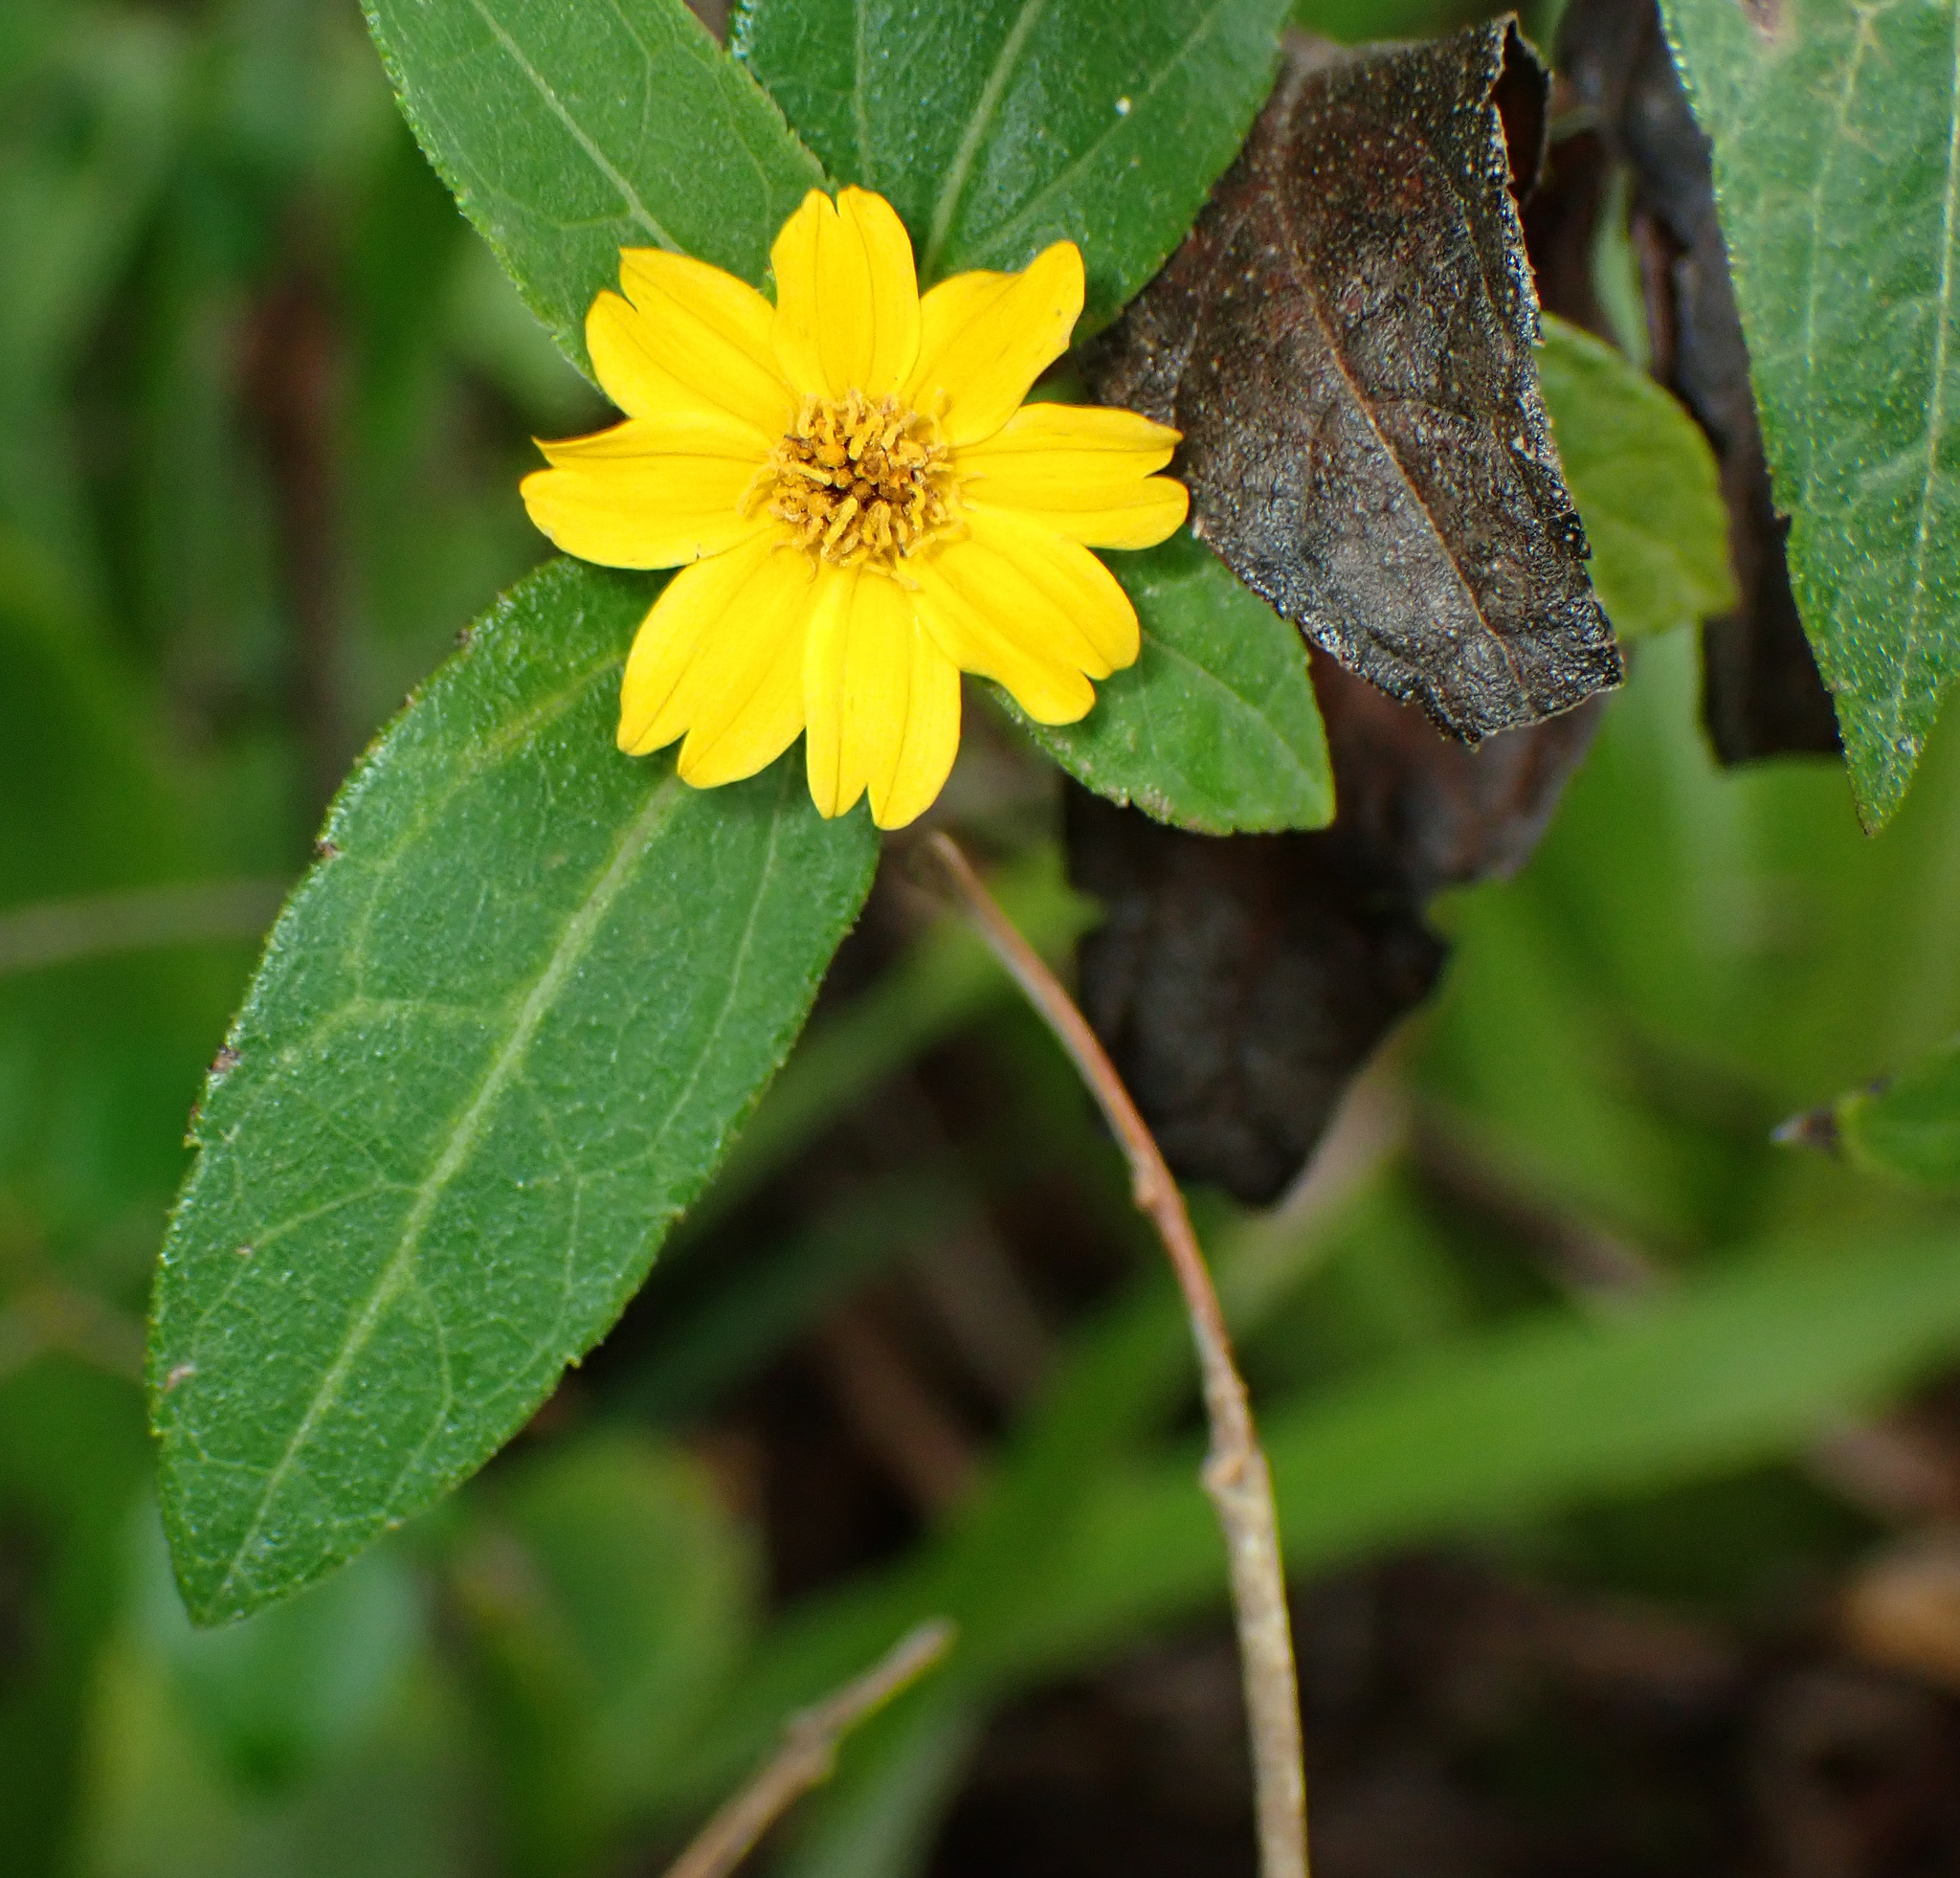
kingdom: Plantae
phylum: Tracheophyta
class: Magnoliopsida
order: Asterales
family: Asteraceae
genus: Sphagneticola
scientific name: Sphagneticola trilobata
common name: Bay biscayne creeping-oxeye
